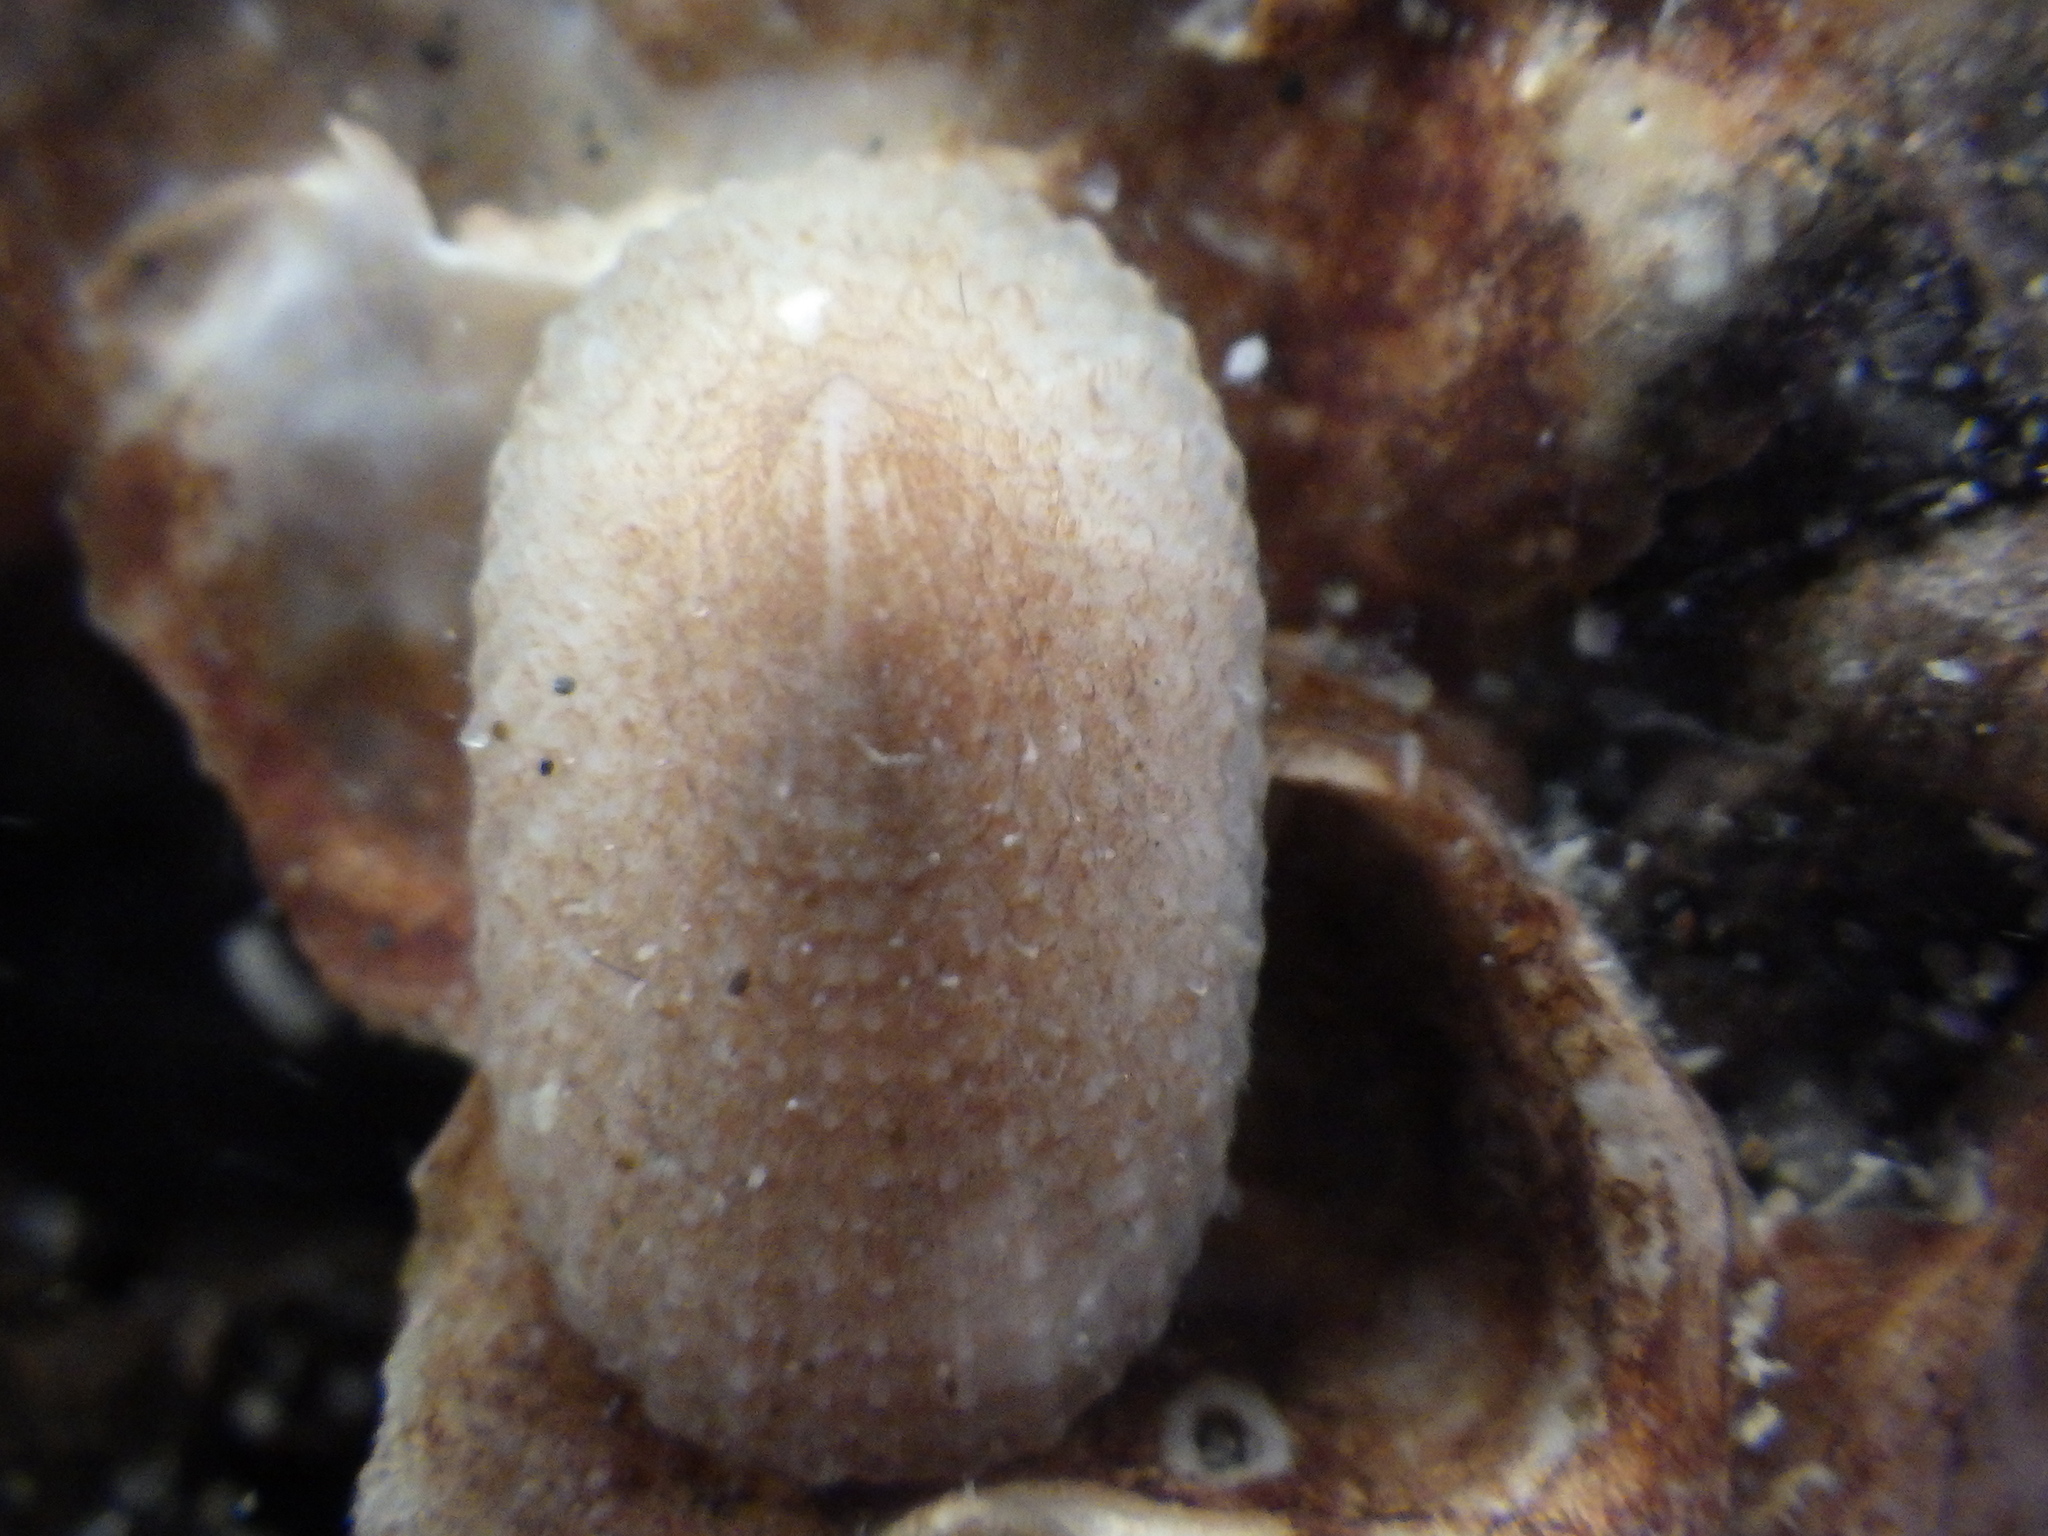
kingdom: Animalia
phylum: Mollusca
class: Gastropoda
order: Lepetellida
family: Fissurellidae
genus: Tugali
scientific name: Tugali suteri
